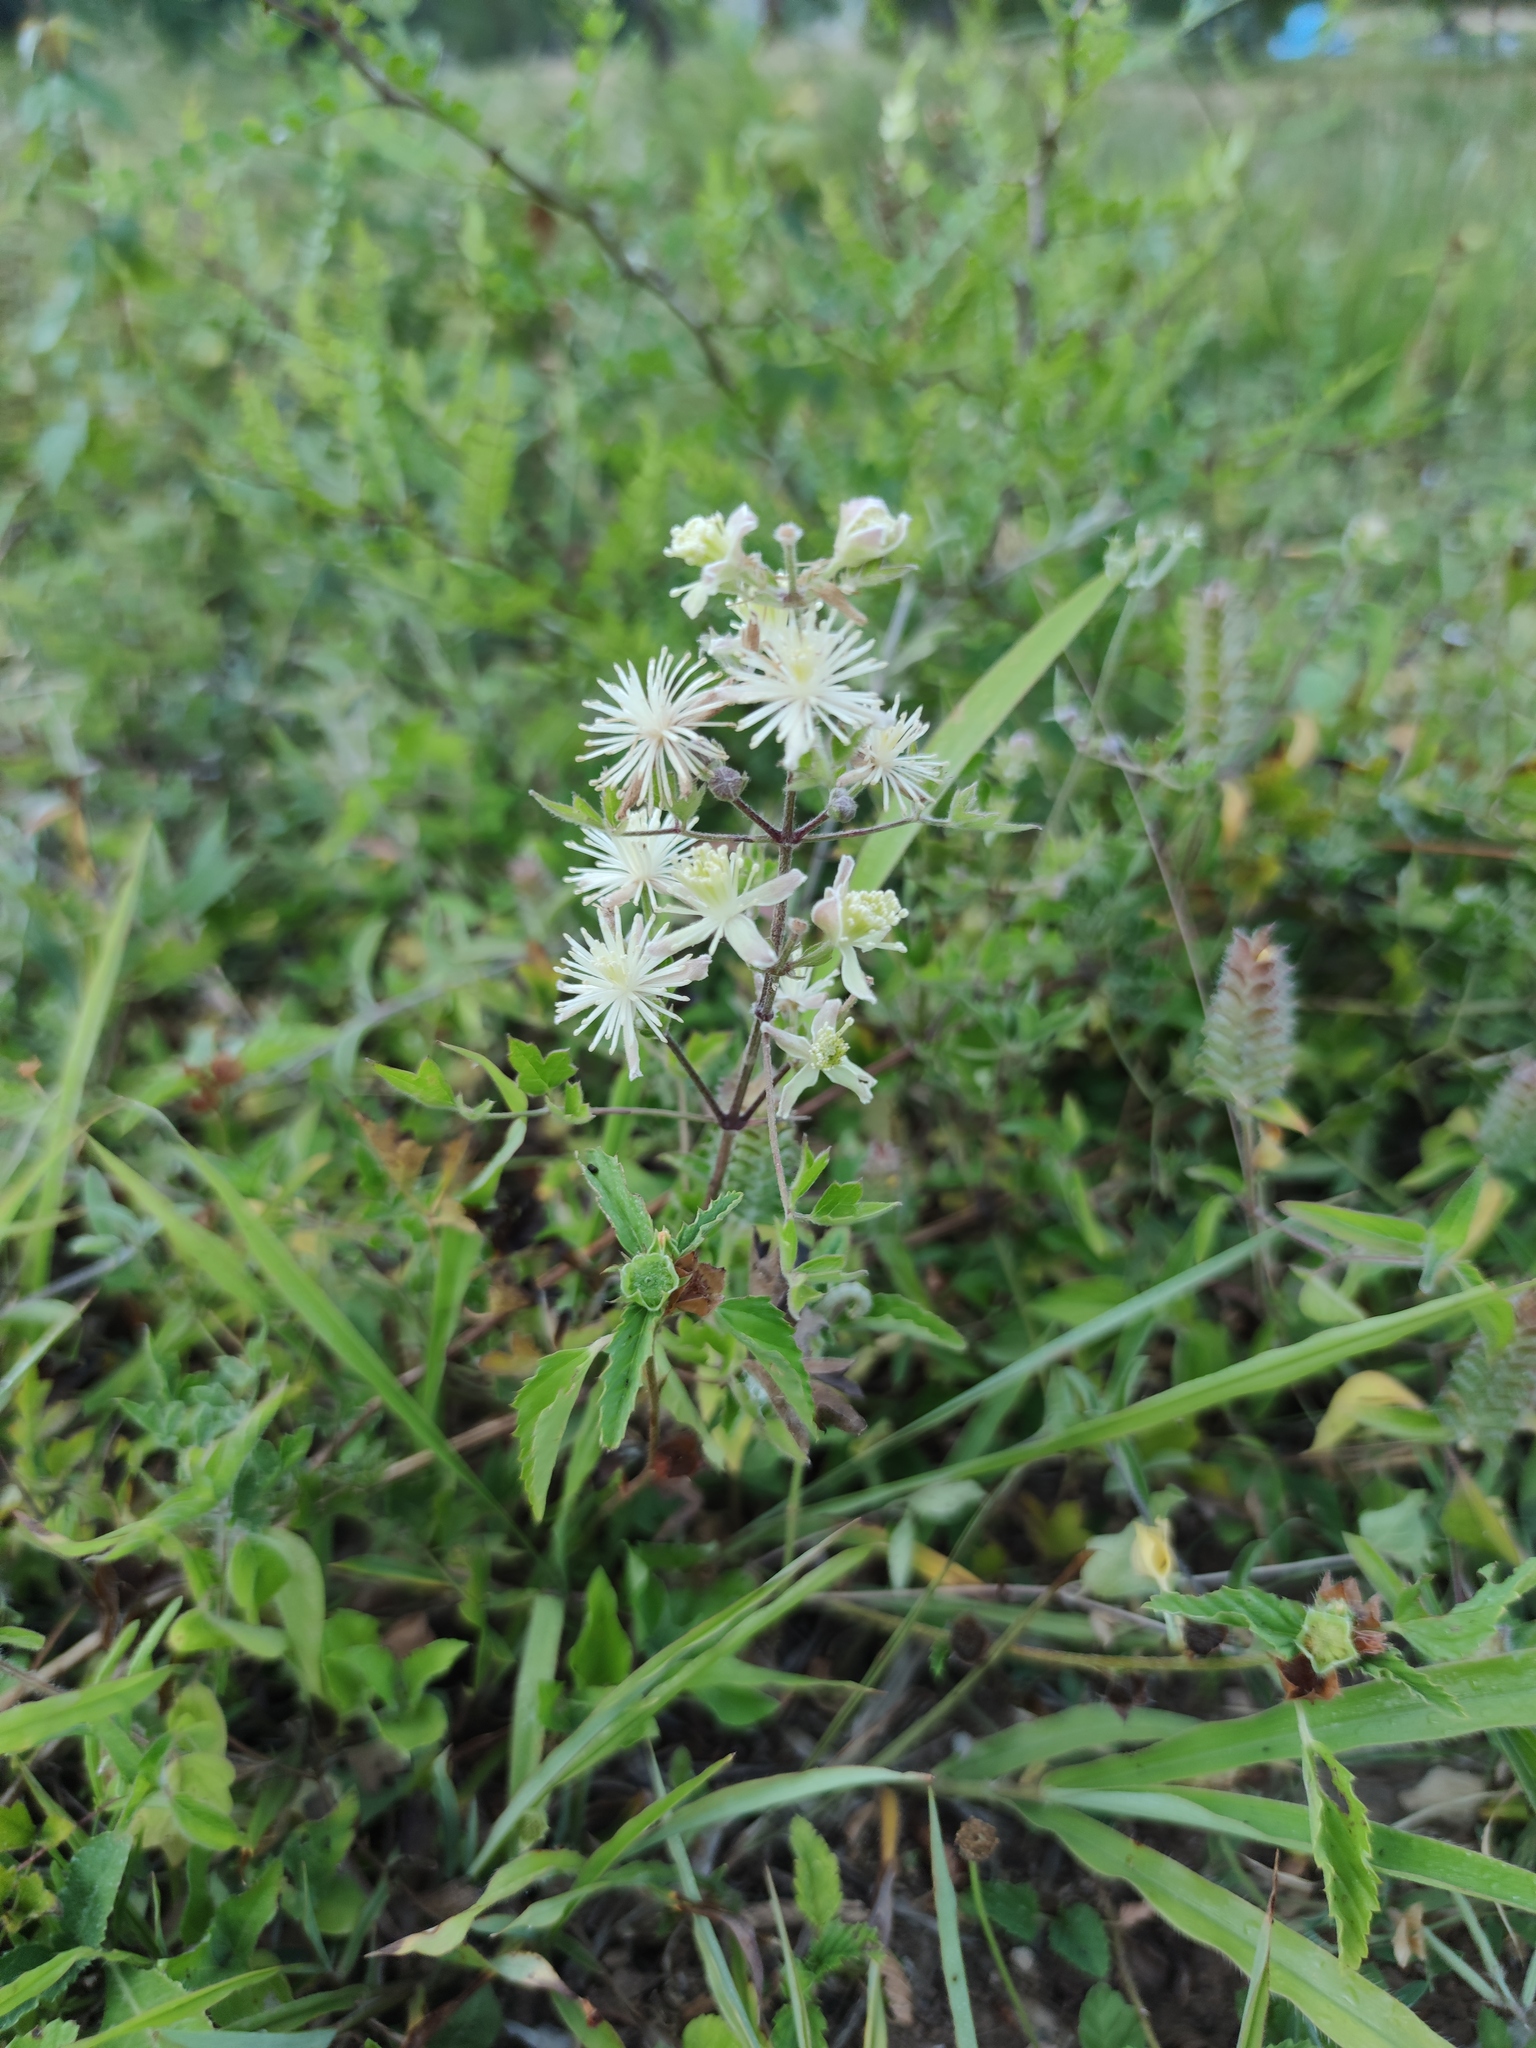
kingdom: Plantae
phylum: Tracheophyta
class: Magnoliopsida
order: Ranunculales
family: Ranunculaceae
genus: Clematis
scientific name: Clematis drummondii
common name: Texas virgin's bower
